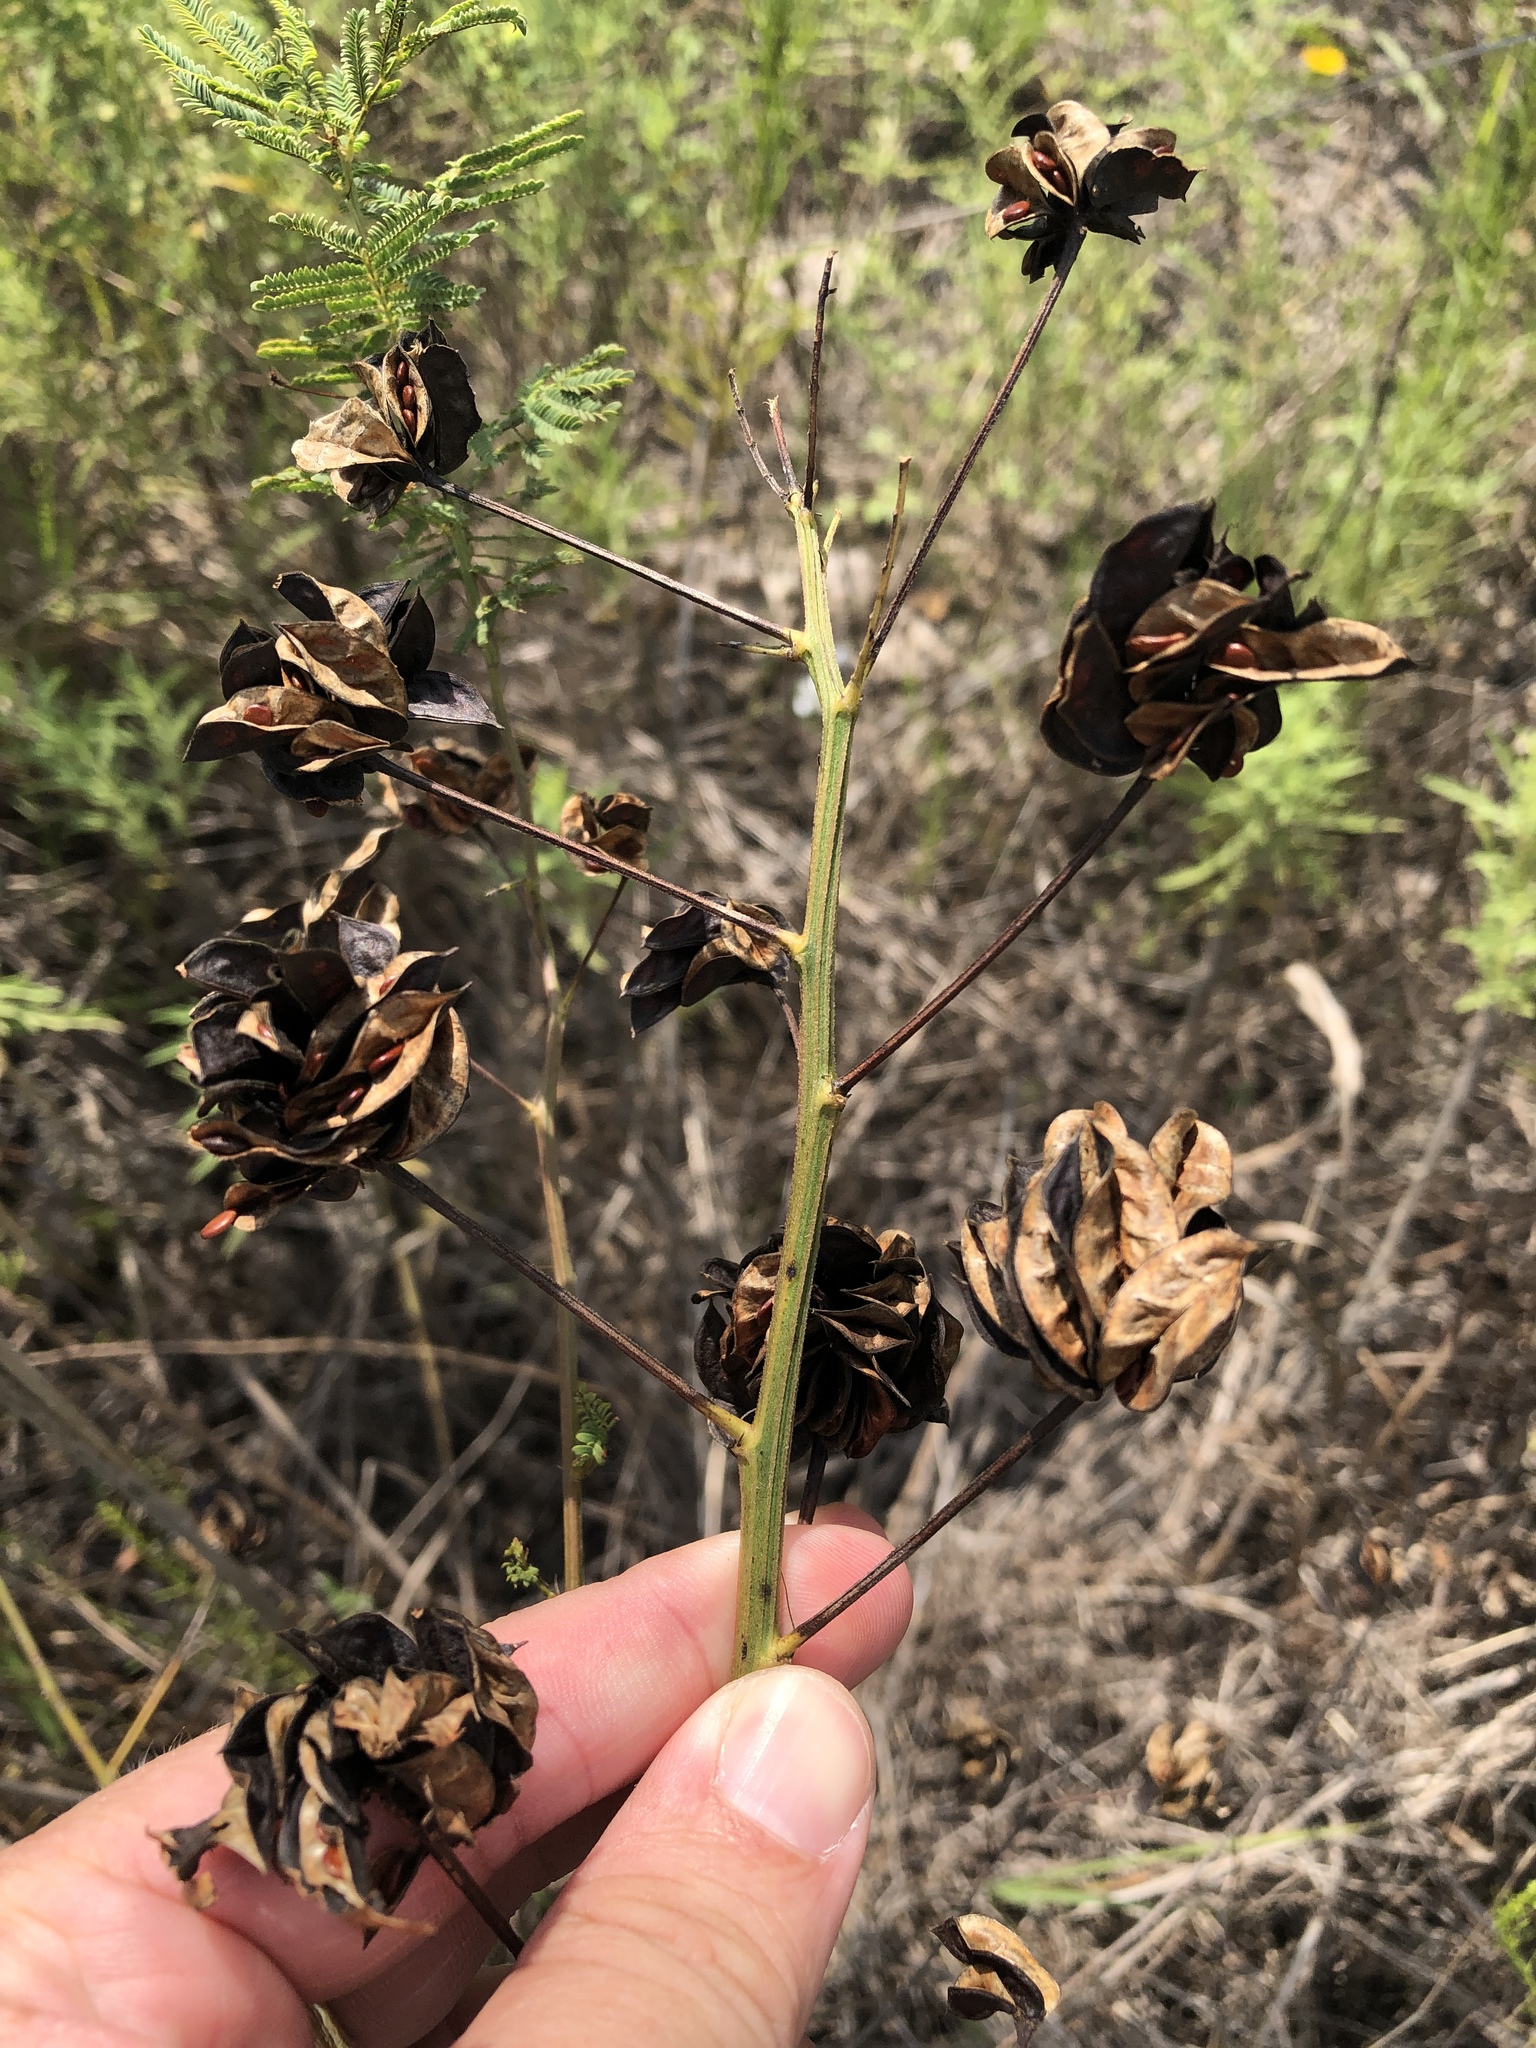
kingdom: Plantae
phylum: Tracheophyta
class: Magnoliopsida
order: Fabales
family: Fabaceae
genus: Desmanthus
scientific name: Desmanthus illinoensis
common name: Illinois bundle-flower
